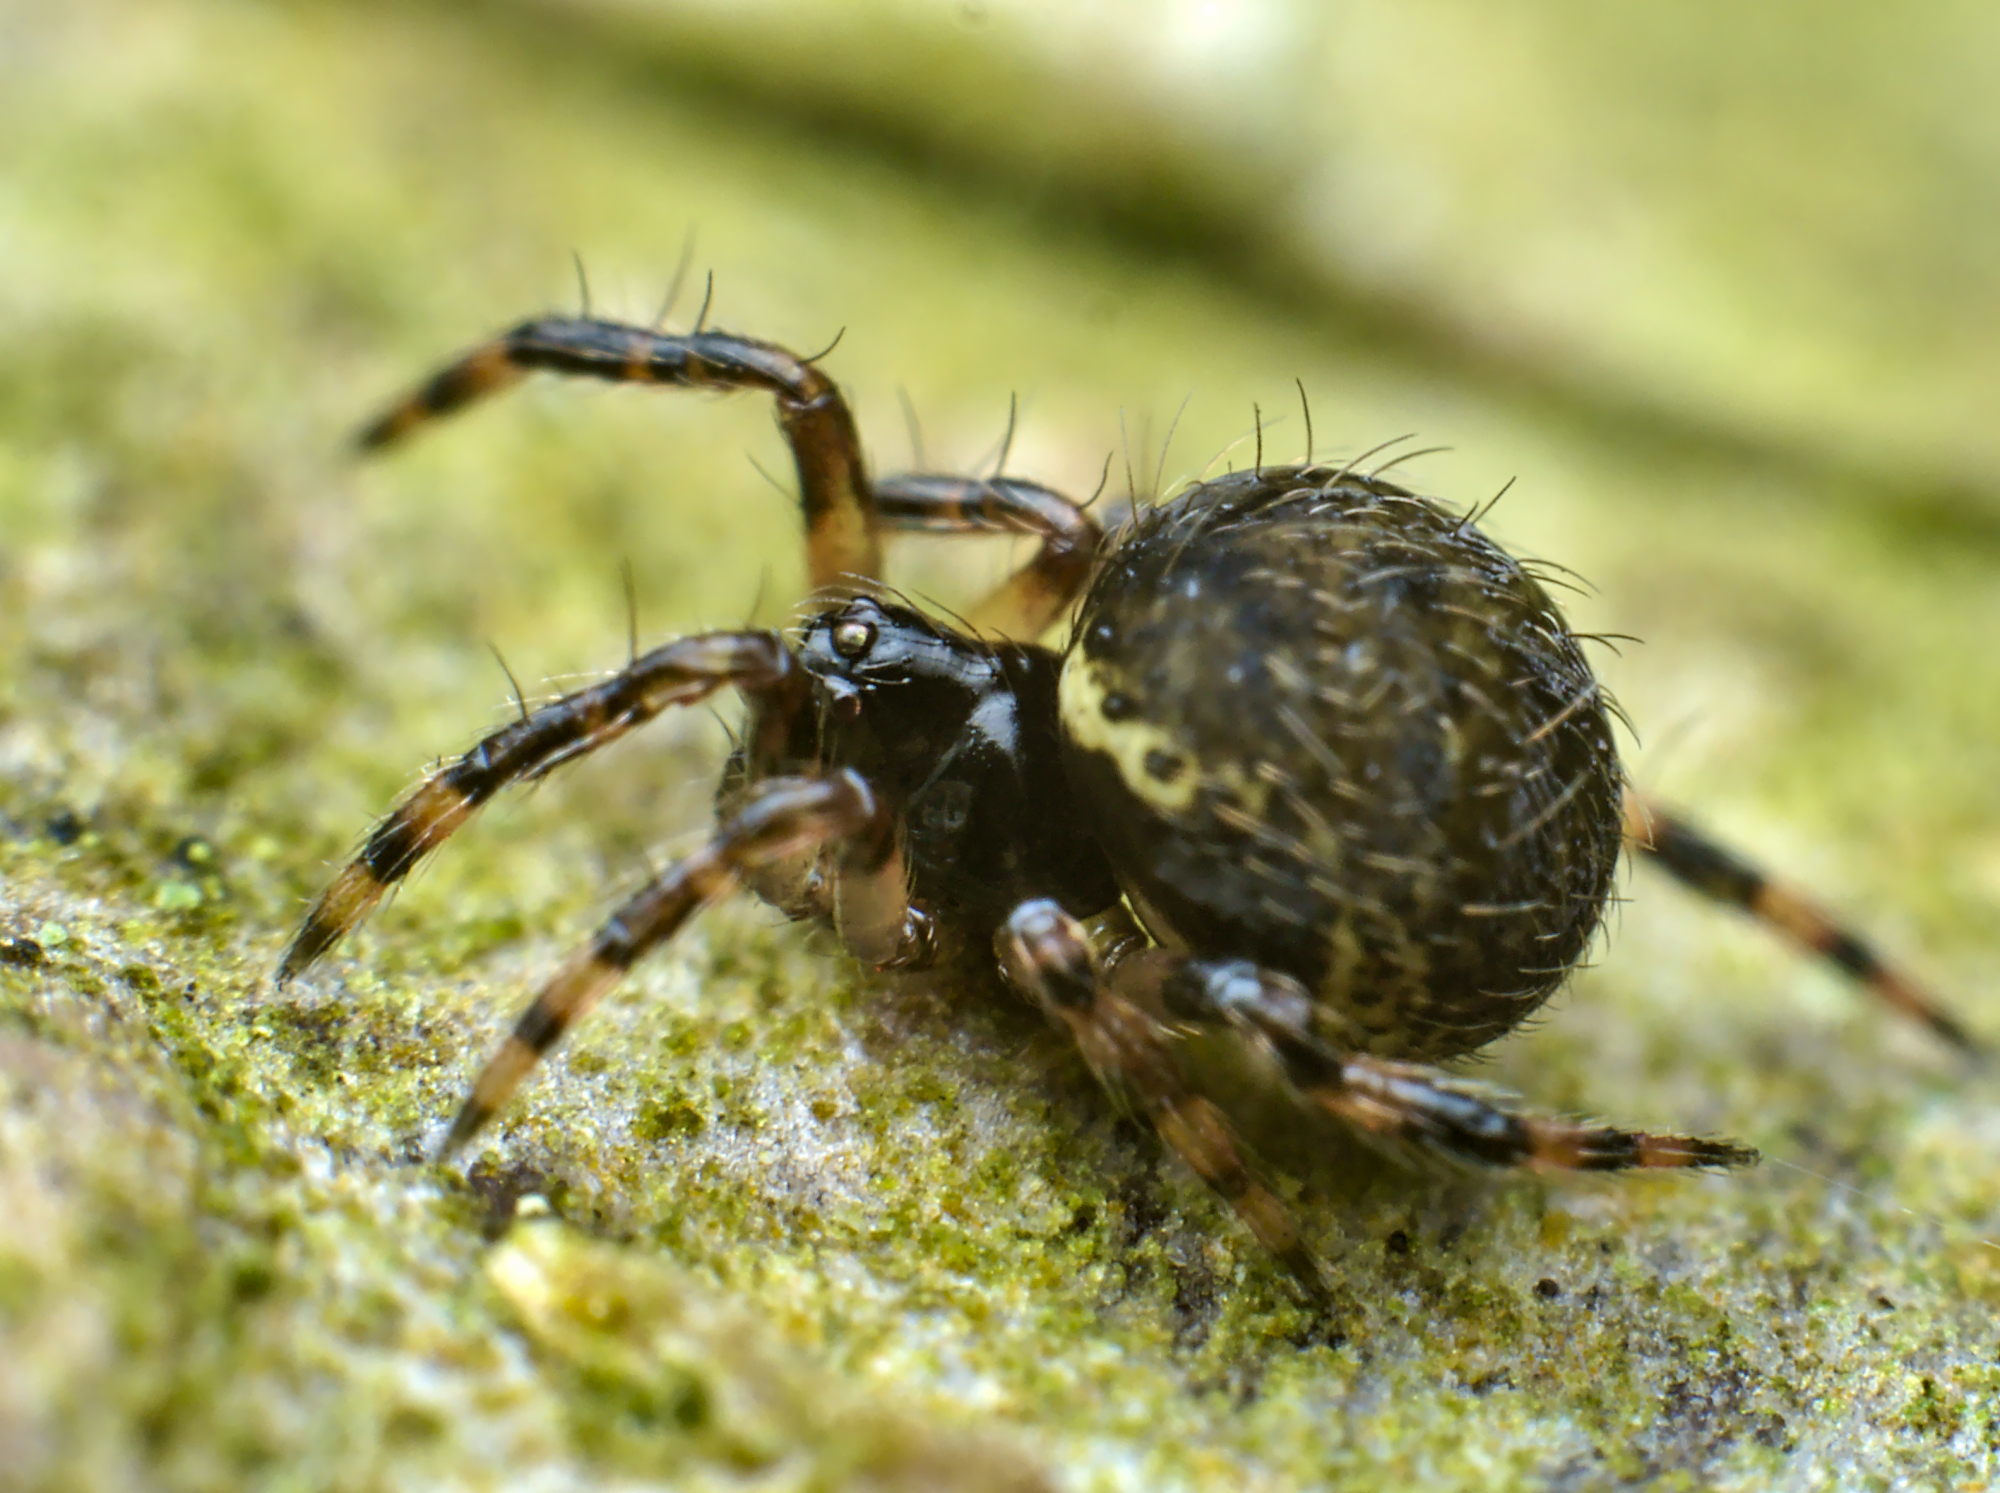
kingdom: Animalia
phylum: Arthropoda
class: Arachnida
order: Araneae
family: Theridiidae
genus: Dipoena
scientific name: Dipoena melanogaster
